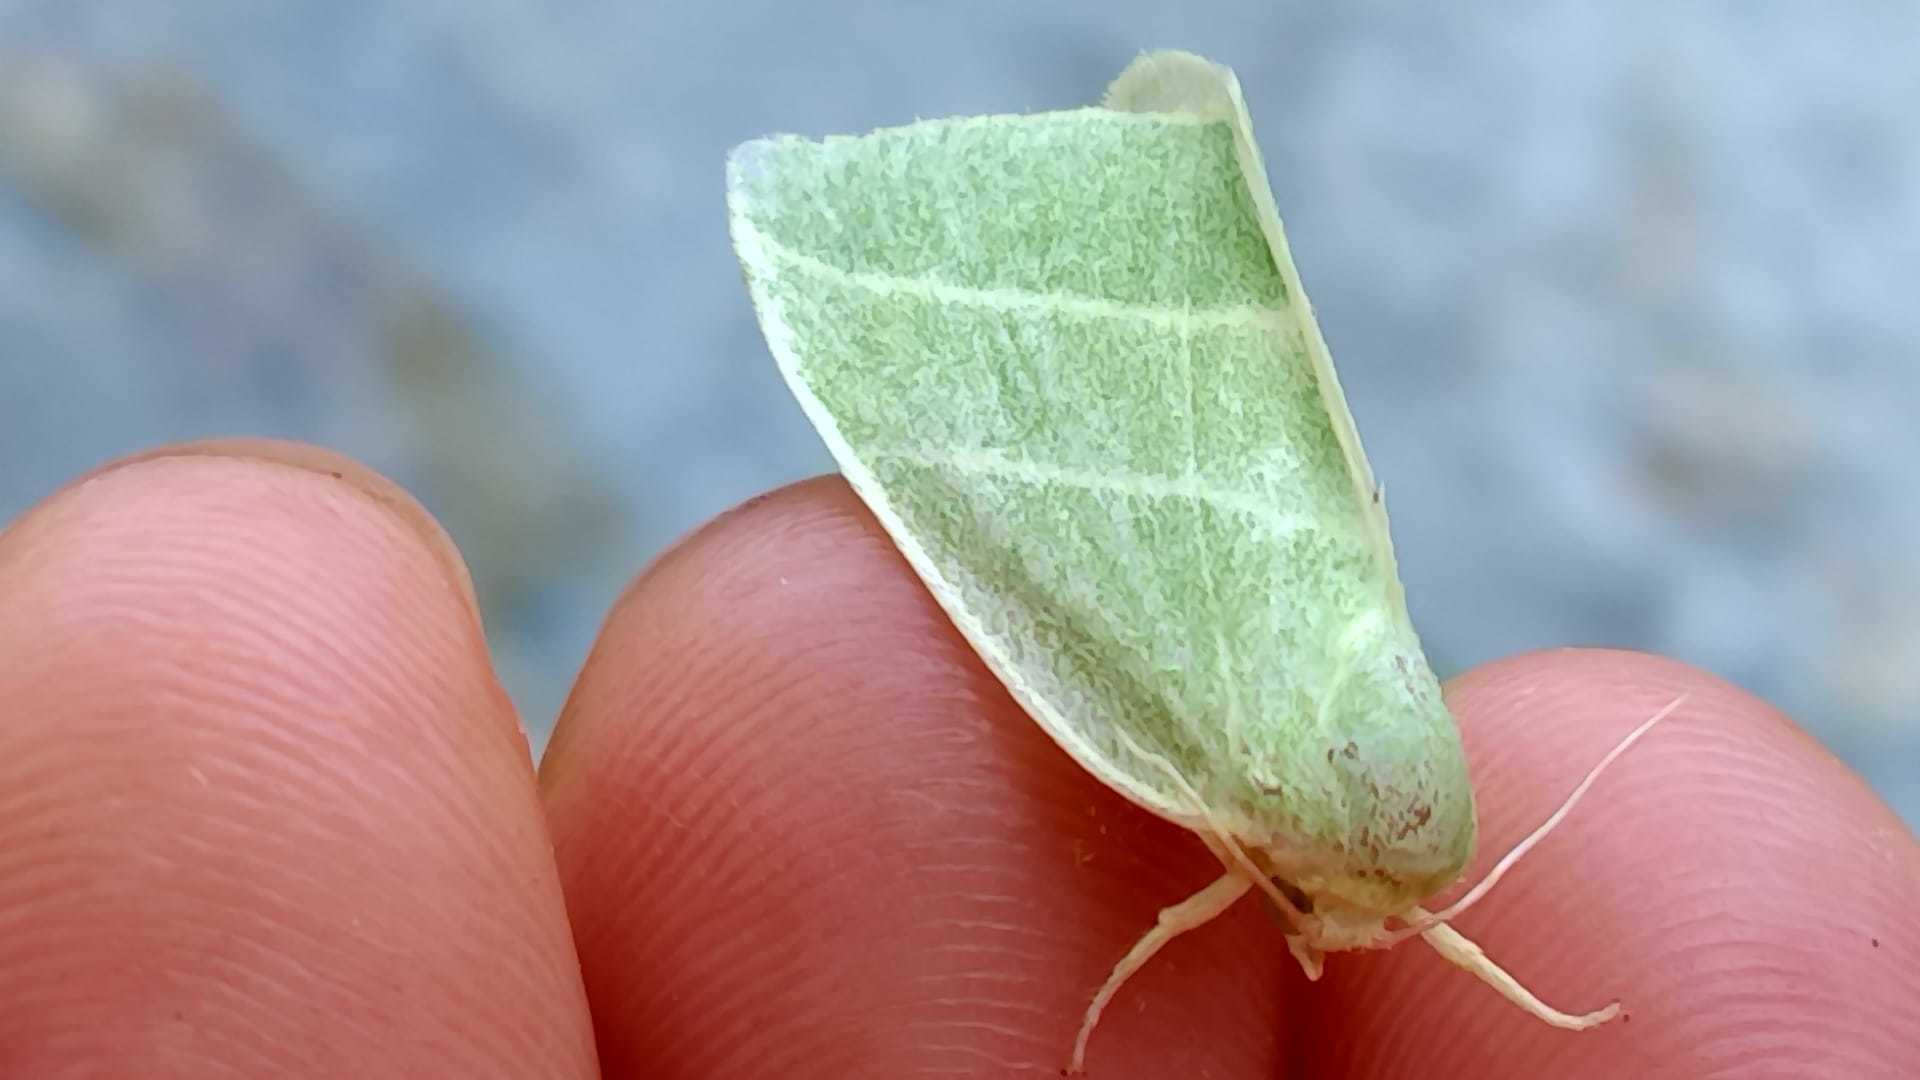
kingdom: Animalia
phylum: Arthropoda
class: Insecta
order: Lepidoptera
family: Nolidae
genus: Bena
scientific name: Bena bicolorana
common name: Scarce silver-lines
